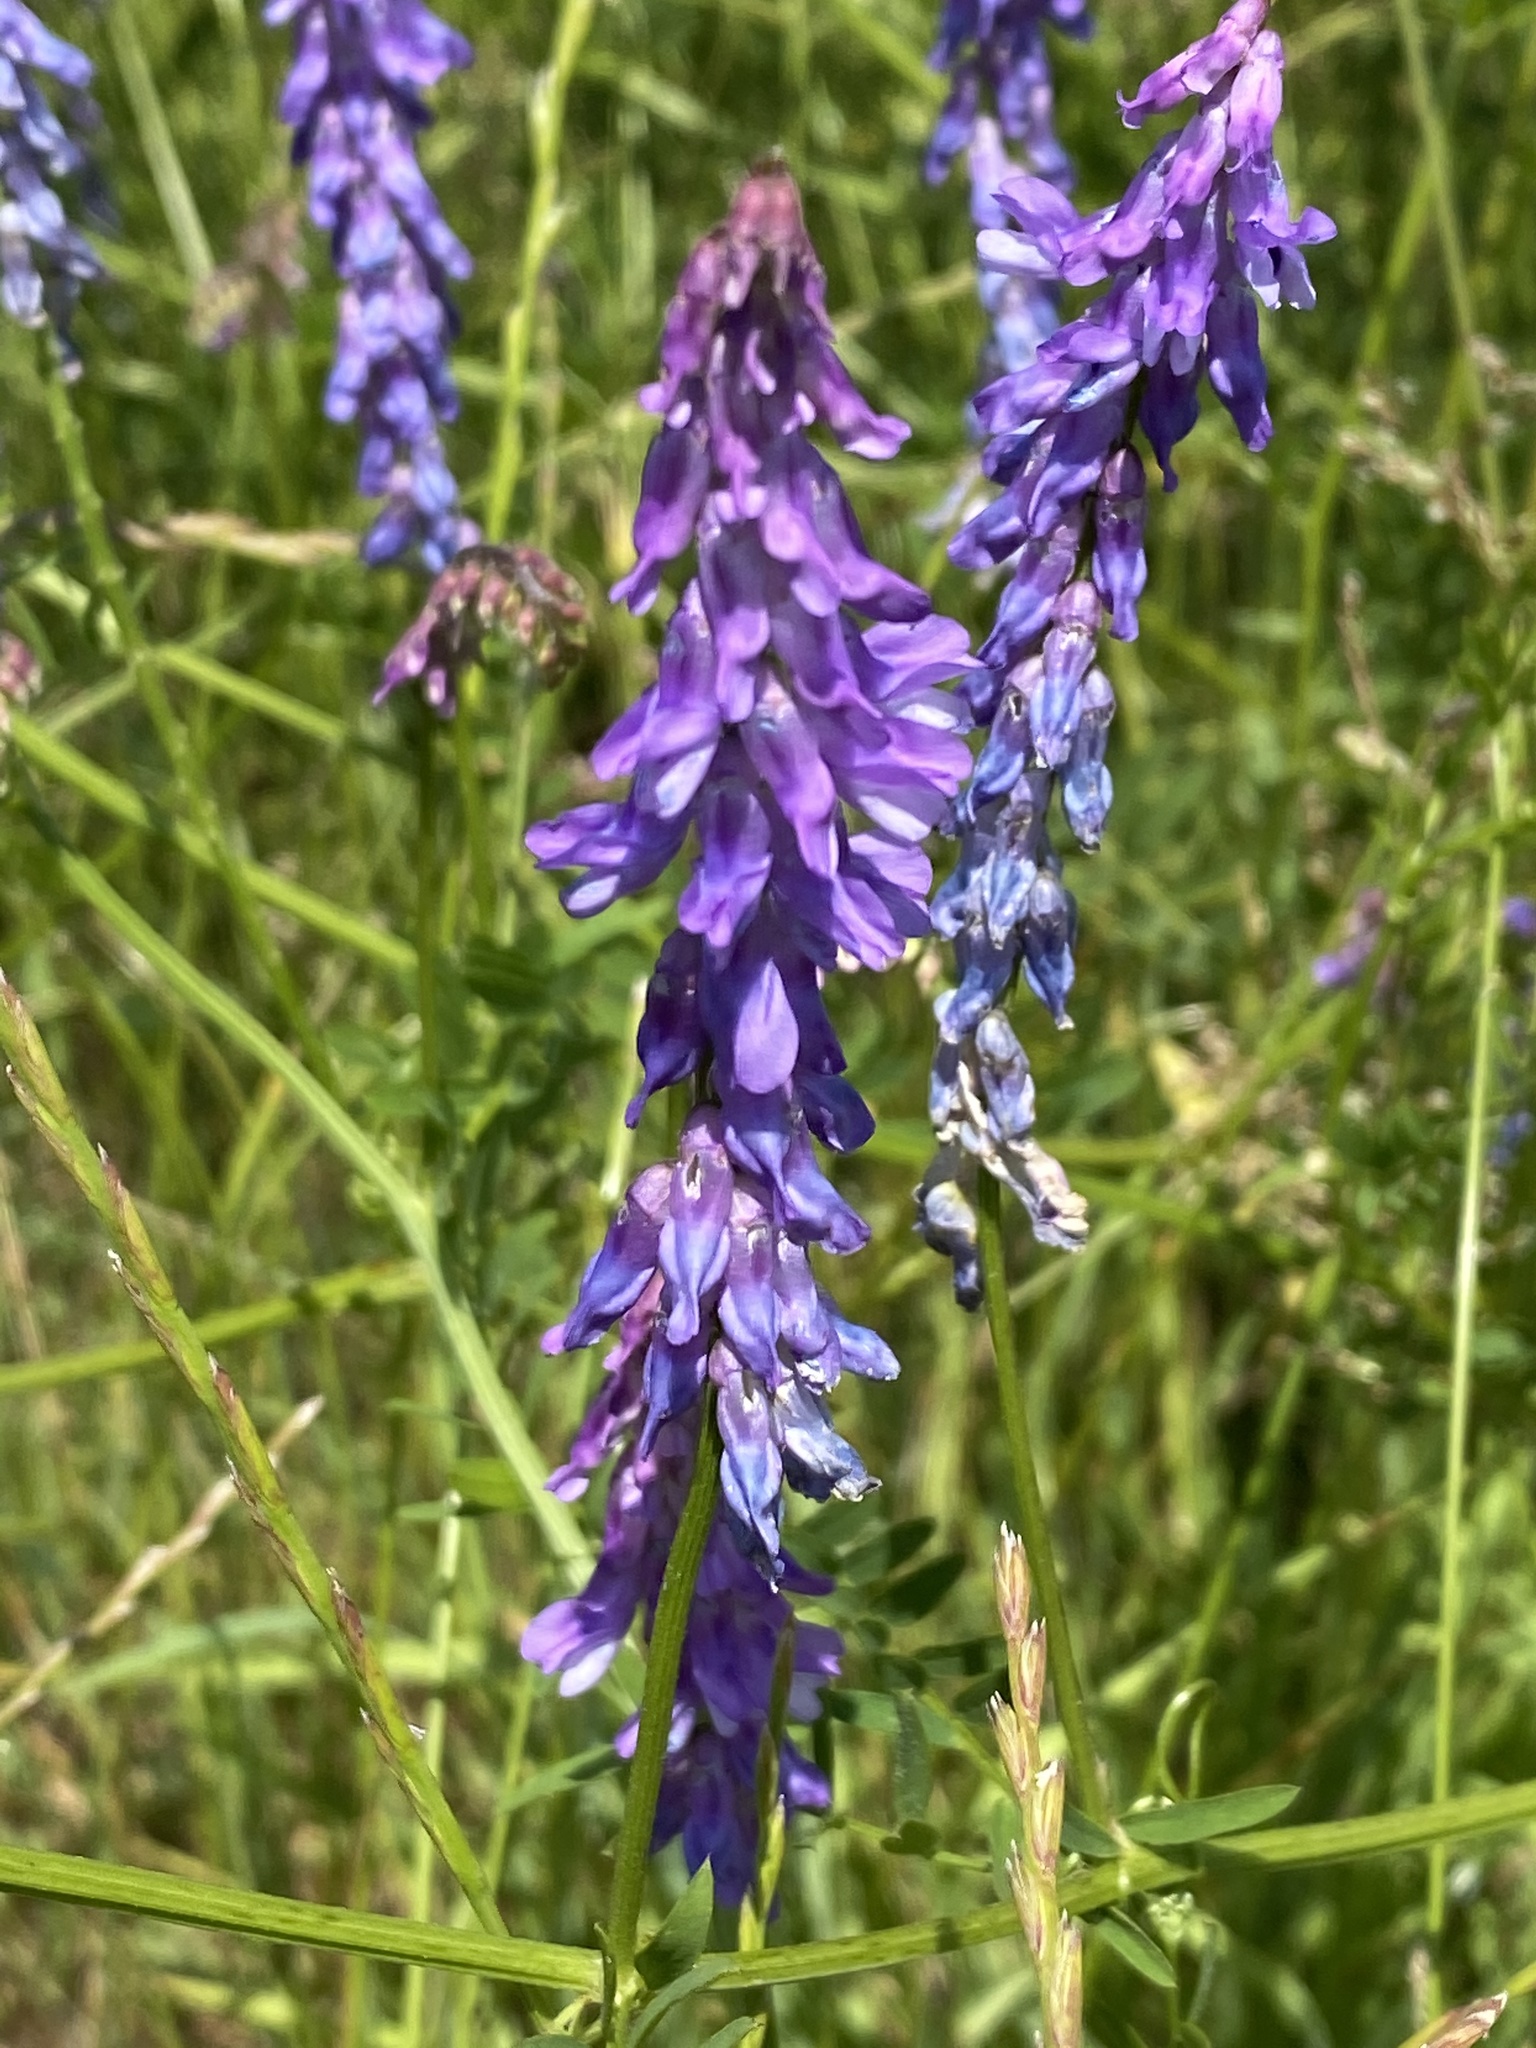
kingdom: Plantae
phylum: Tracheophyta
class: Magnoliopsida
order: Fabales
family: Fabaceae
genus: Vicia
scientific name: Vicia cracca
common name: Bird vetch
